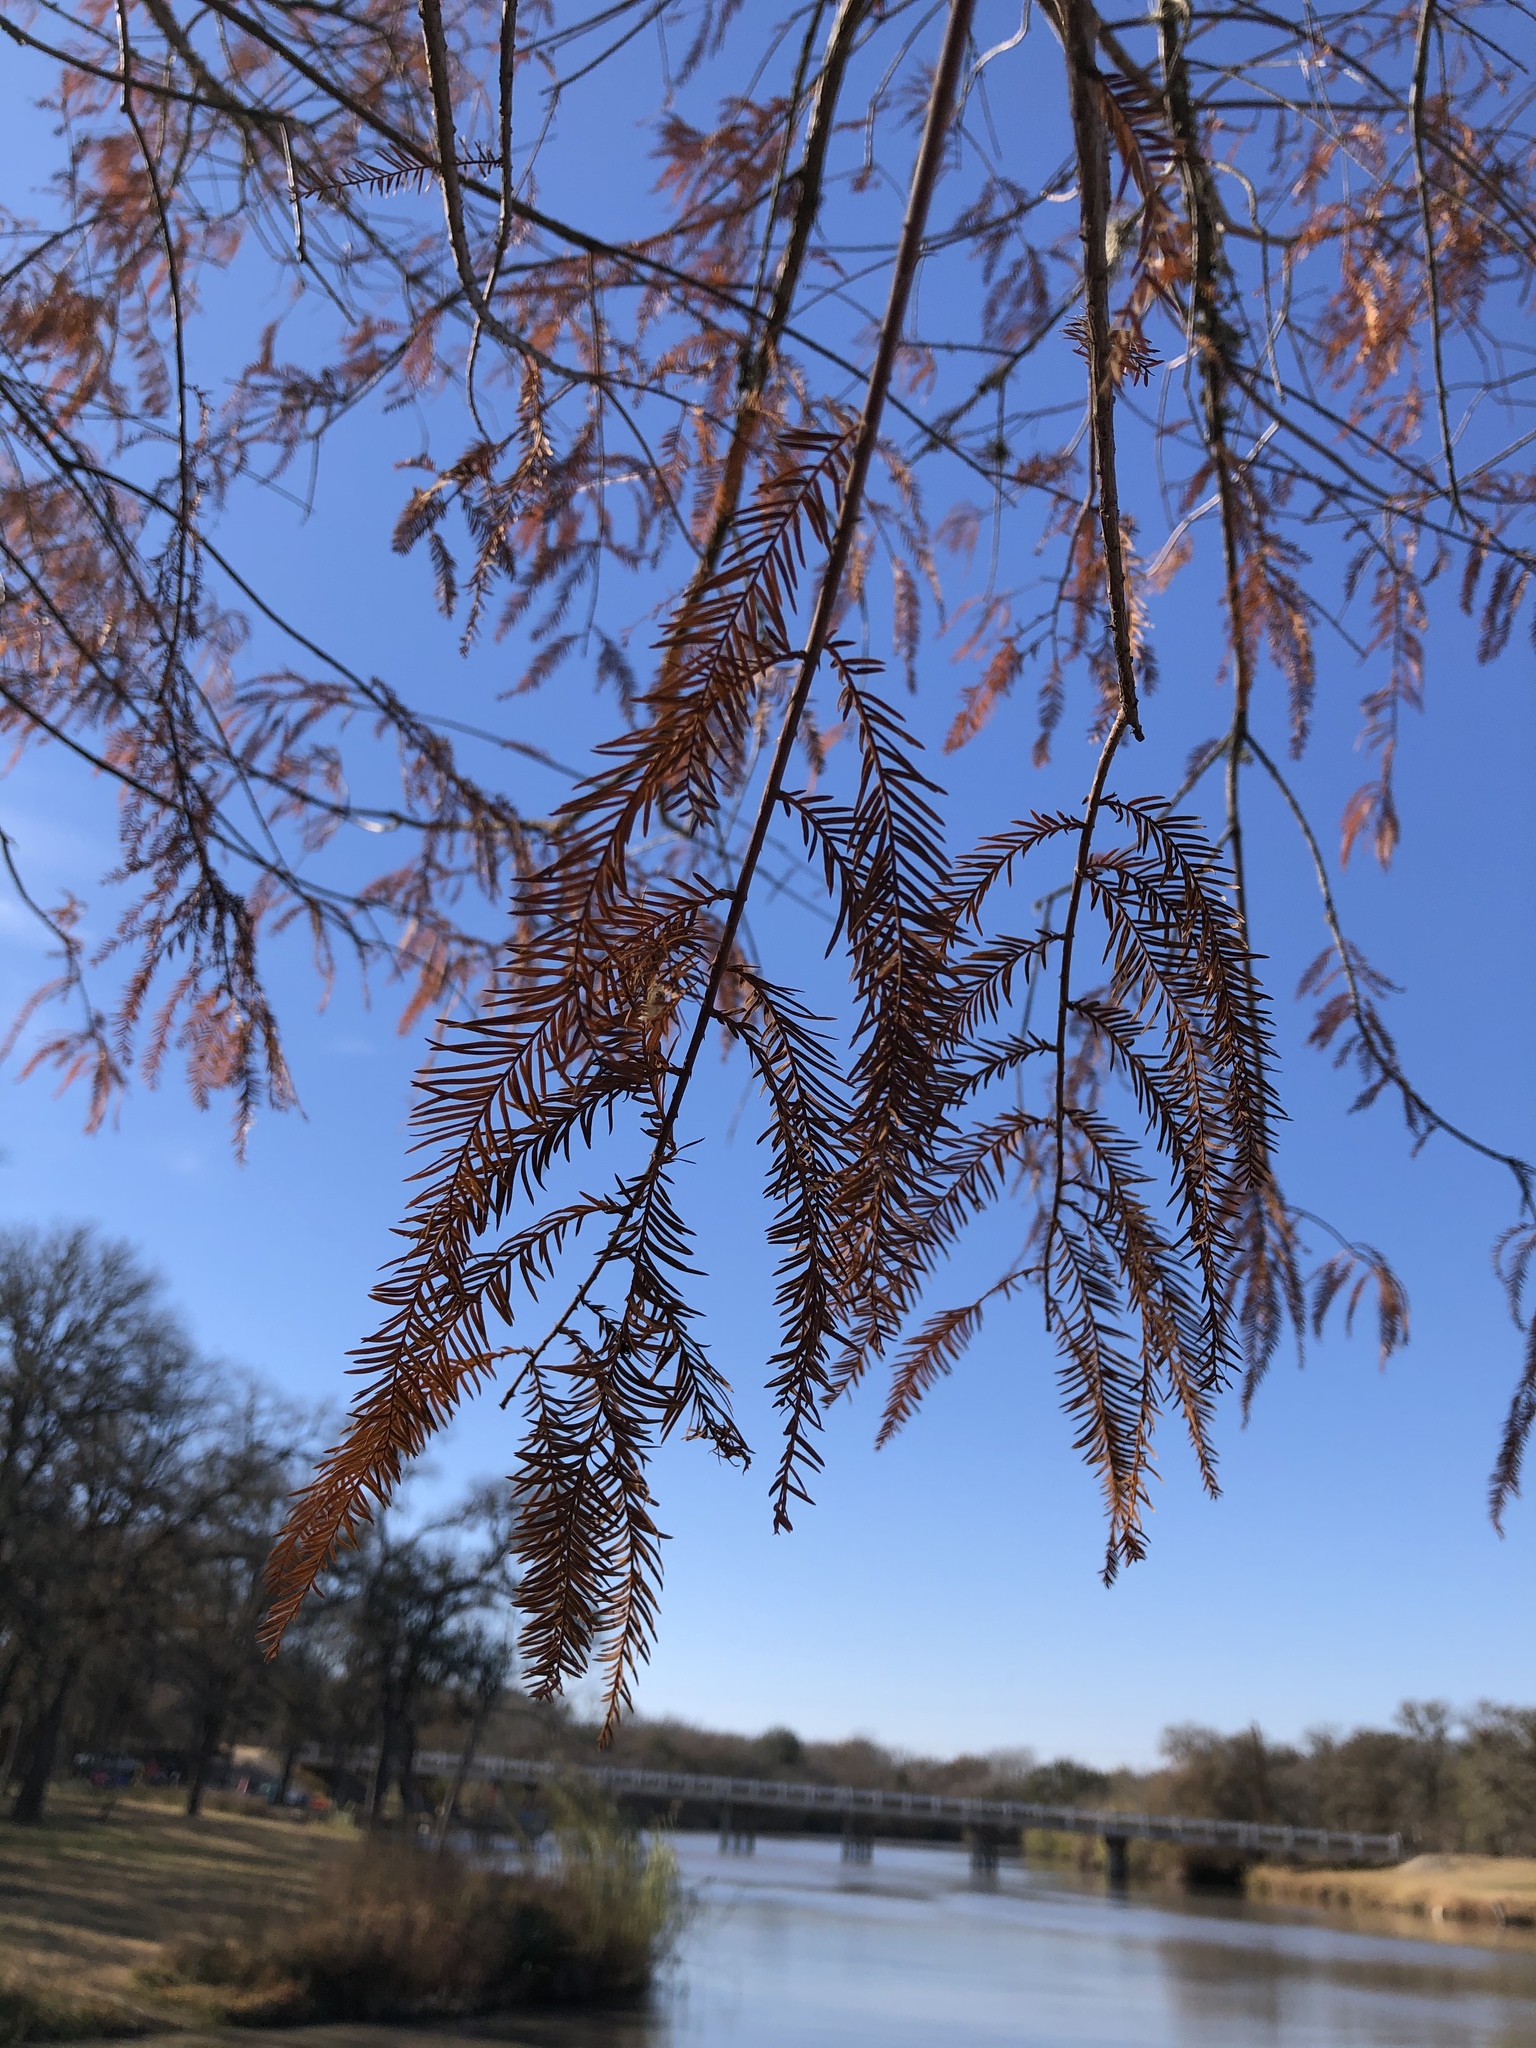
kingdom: Plantae
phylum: Tracheophyta
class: Pinopsida
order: Pinales
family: Cupressaceae
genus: Taxodium
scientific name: Taxodium distichum
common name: Bald cypress
